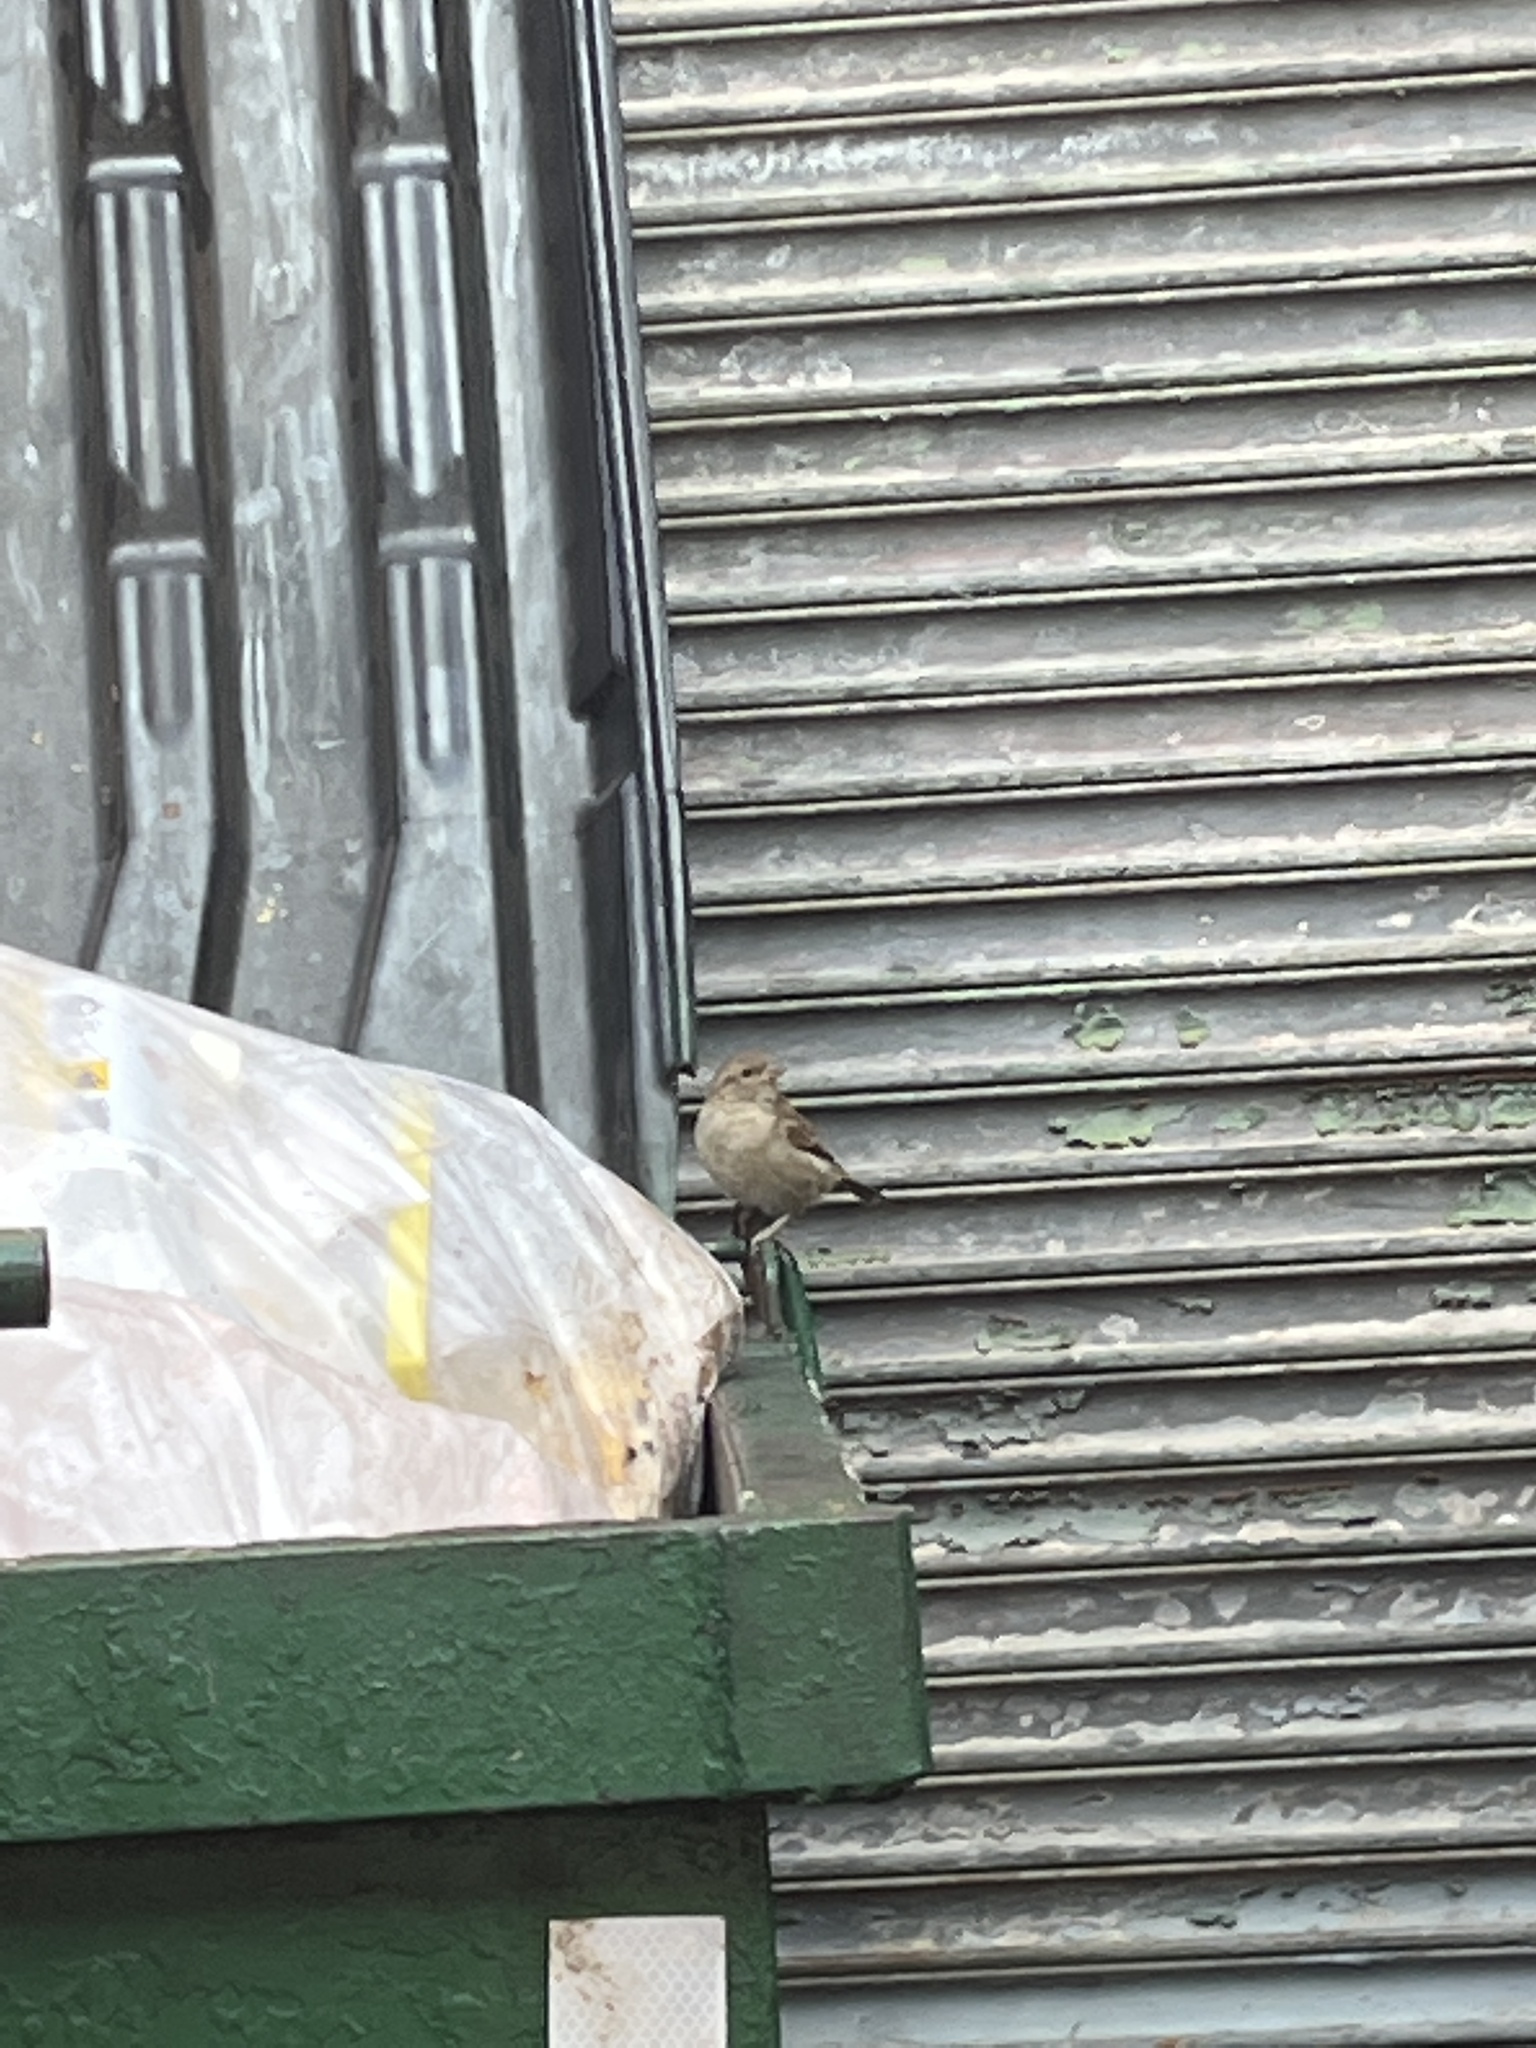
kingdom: Animalia
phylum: Chordata
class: Aves
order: Passeriformes
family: Passeridae
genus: Passer
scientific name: Passer domesticus
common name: House sparrow
